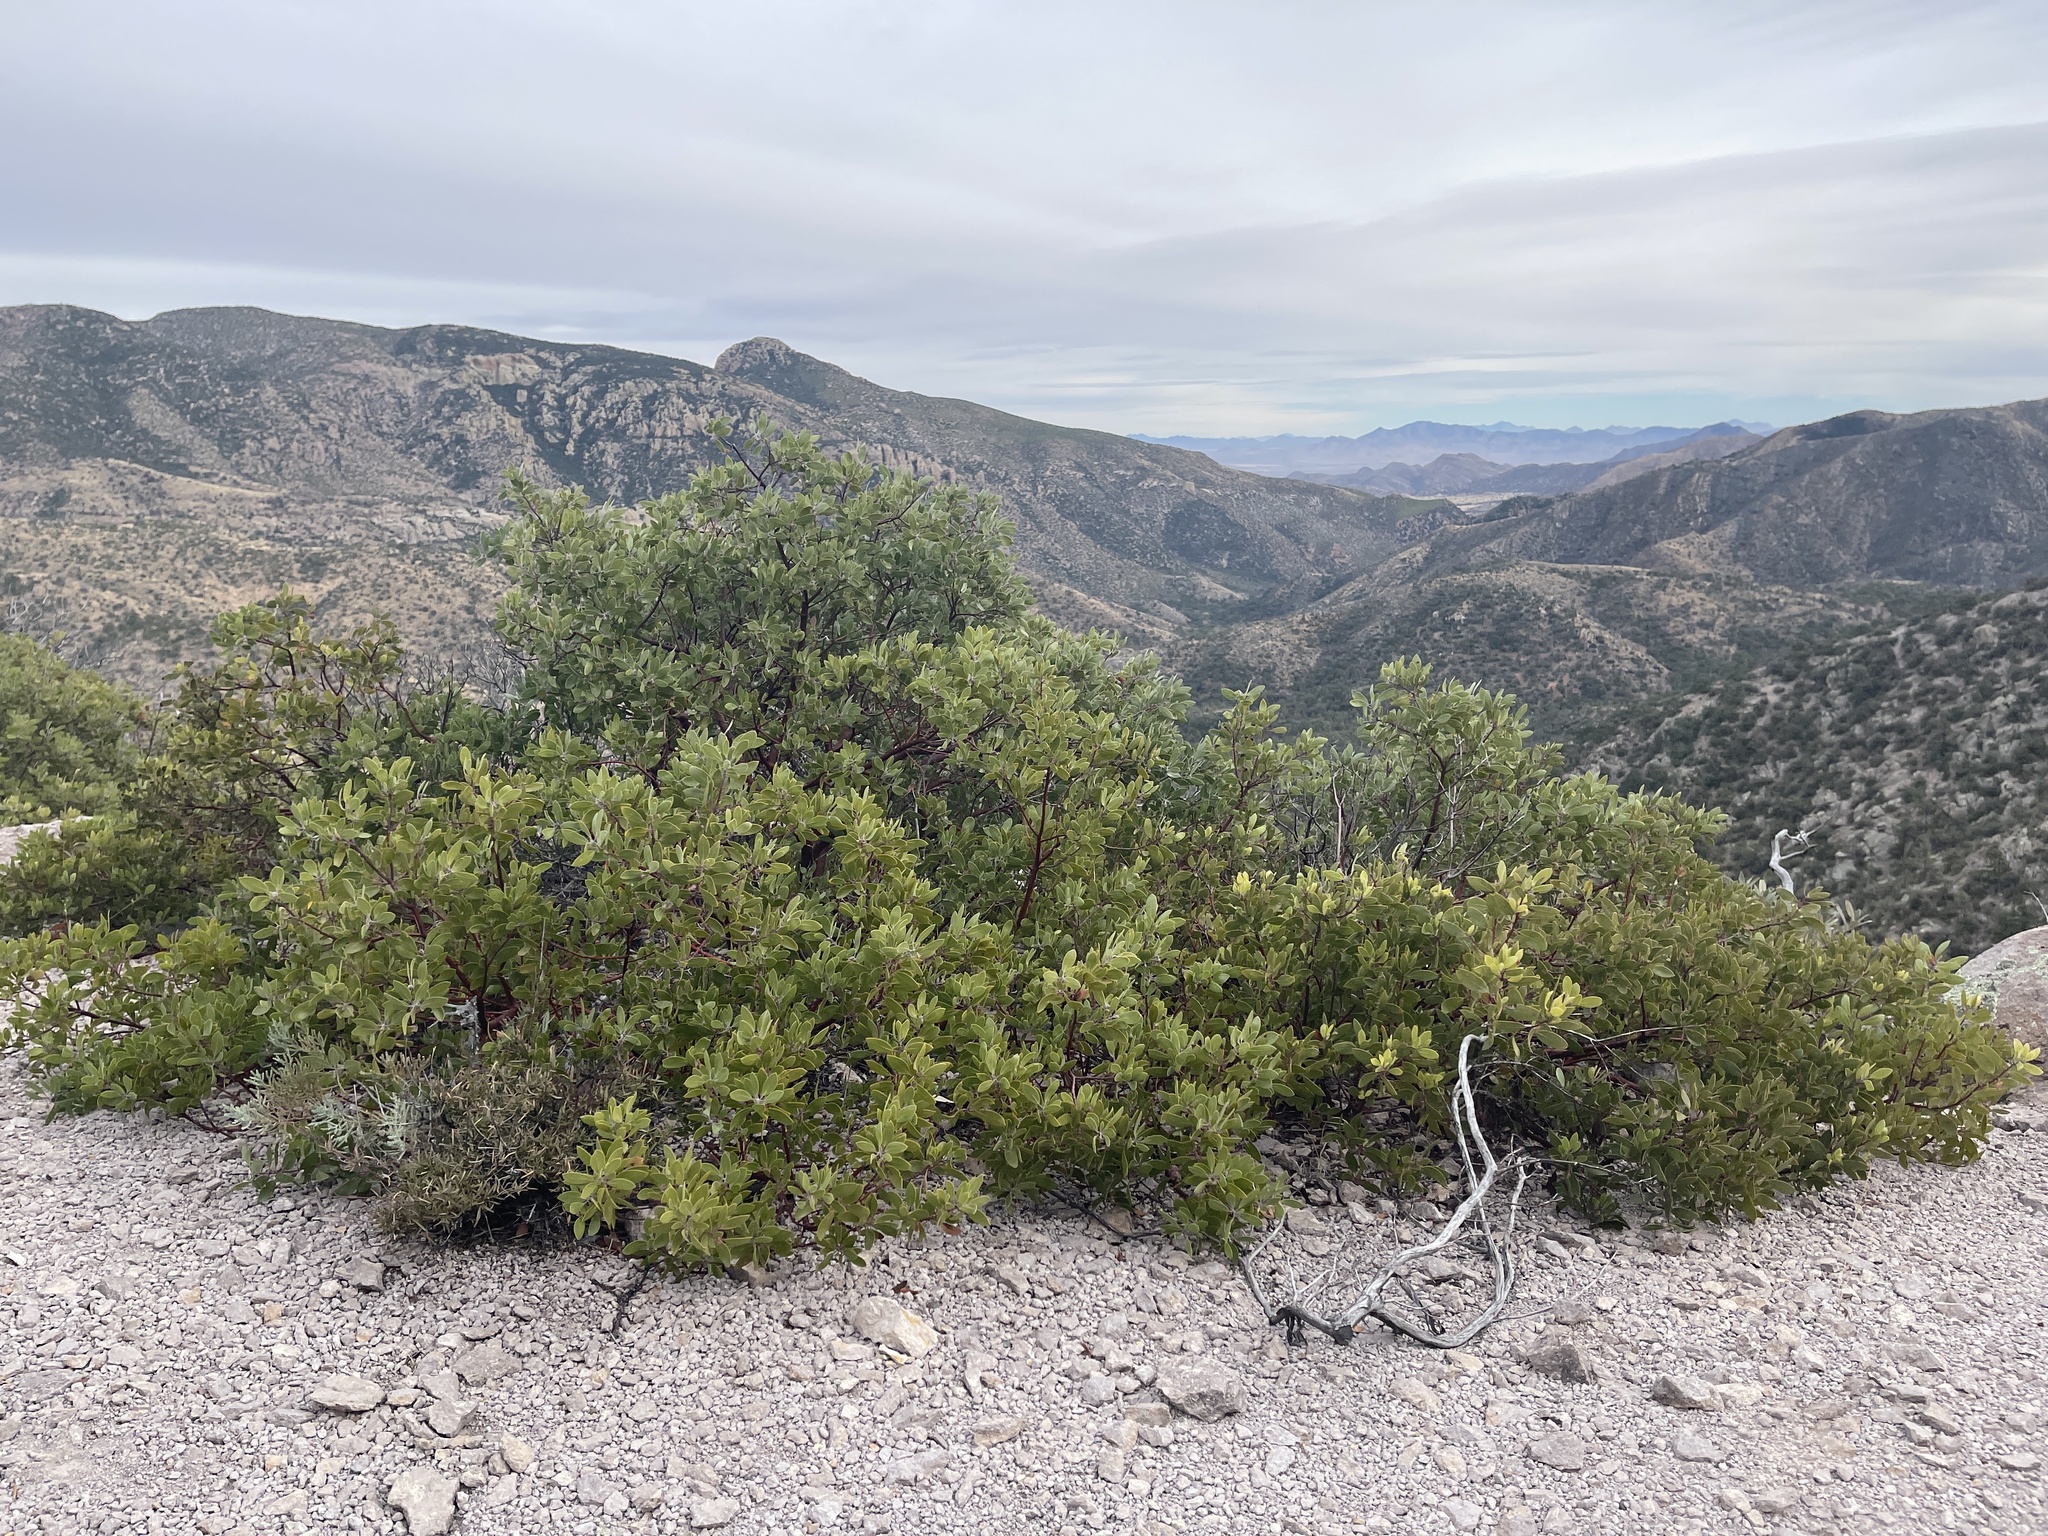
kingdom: Plantae
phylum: Tracheophyta
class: Magnoliopsida
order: Ericales
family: Ericaceae
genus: Arctostaphylos
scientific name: Arctostaphylos pungens
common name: Mexican manzanita
